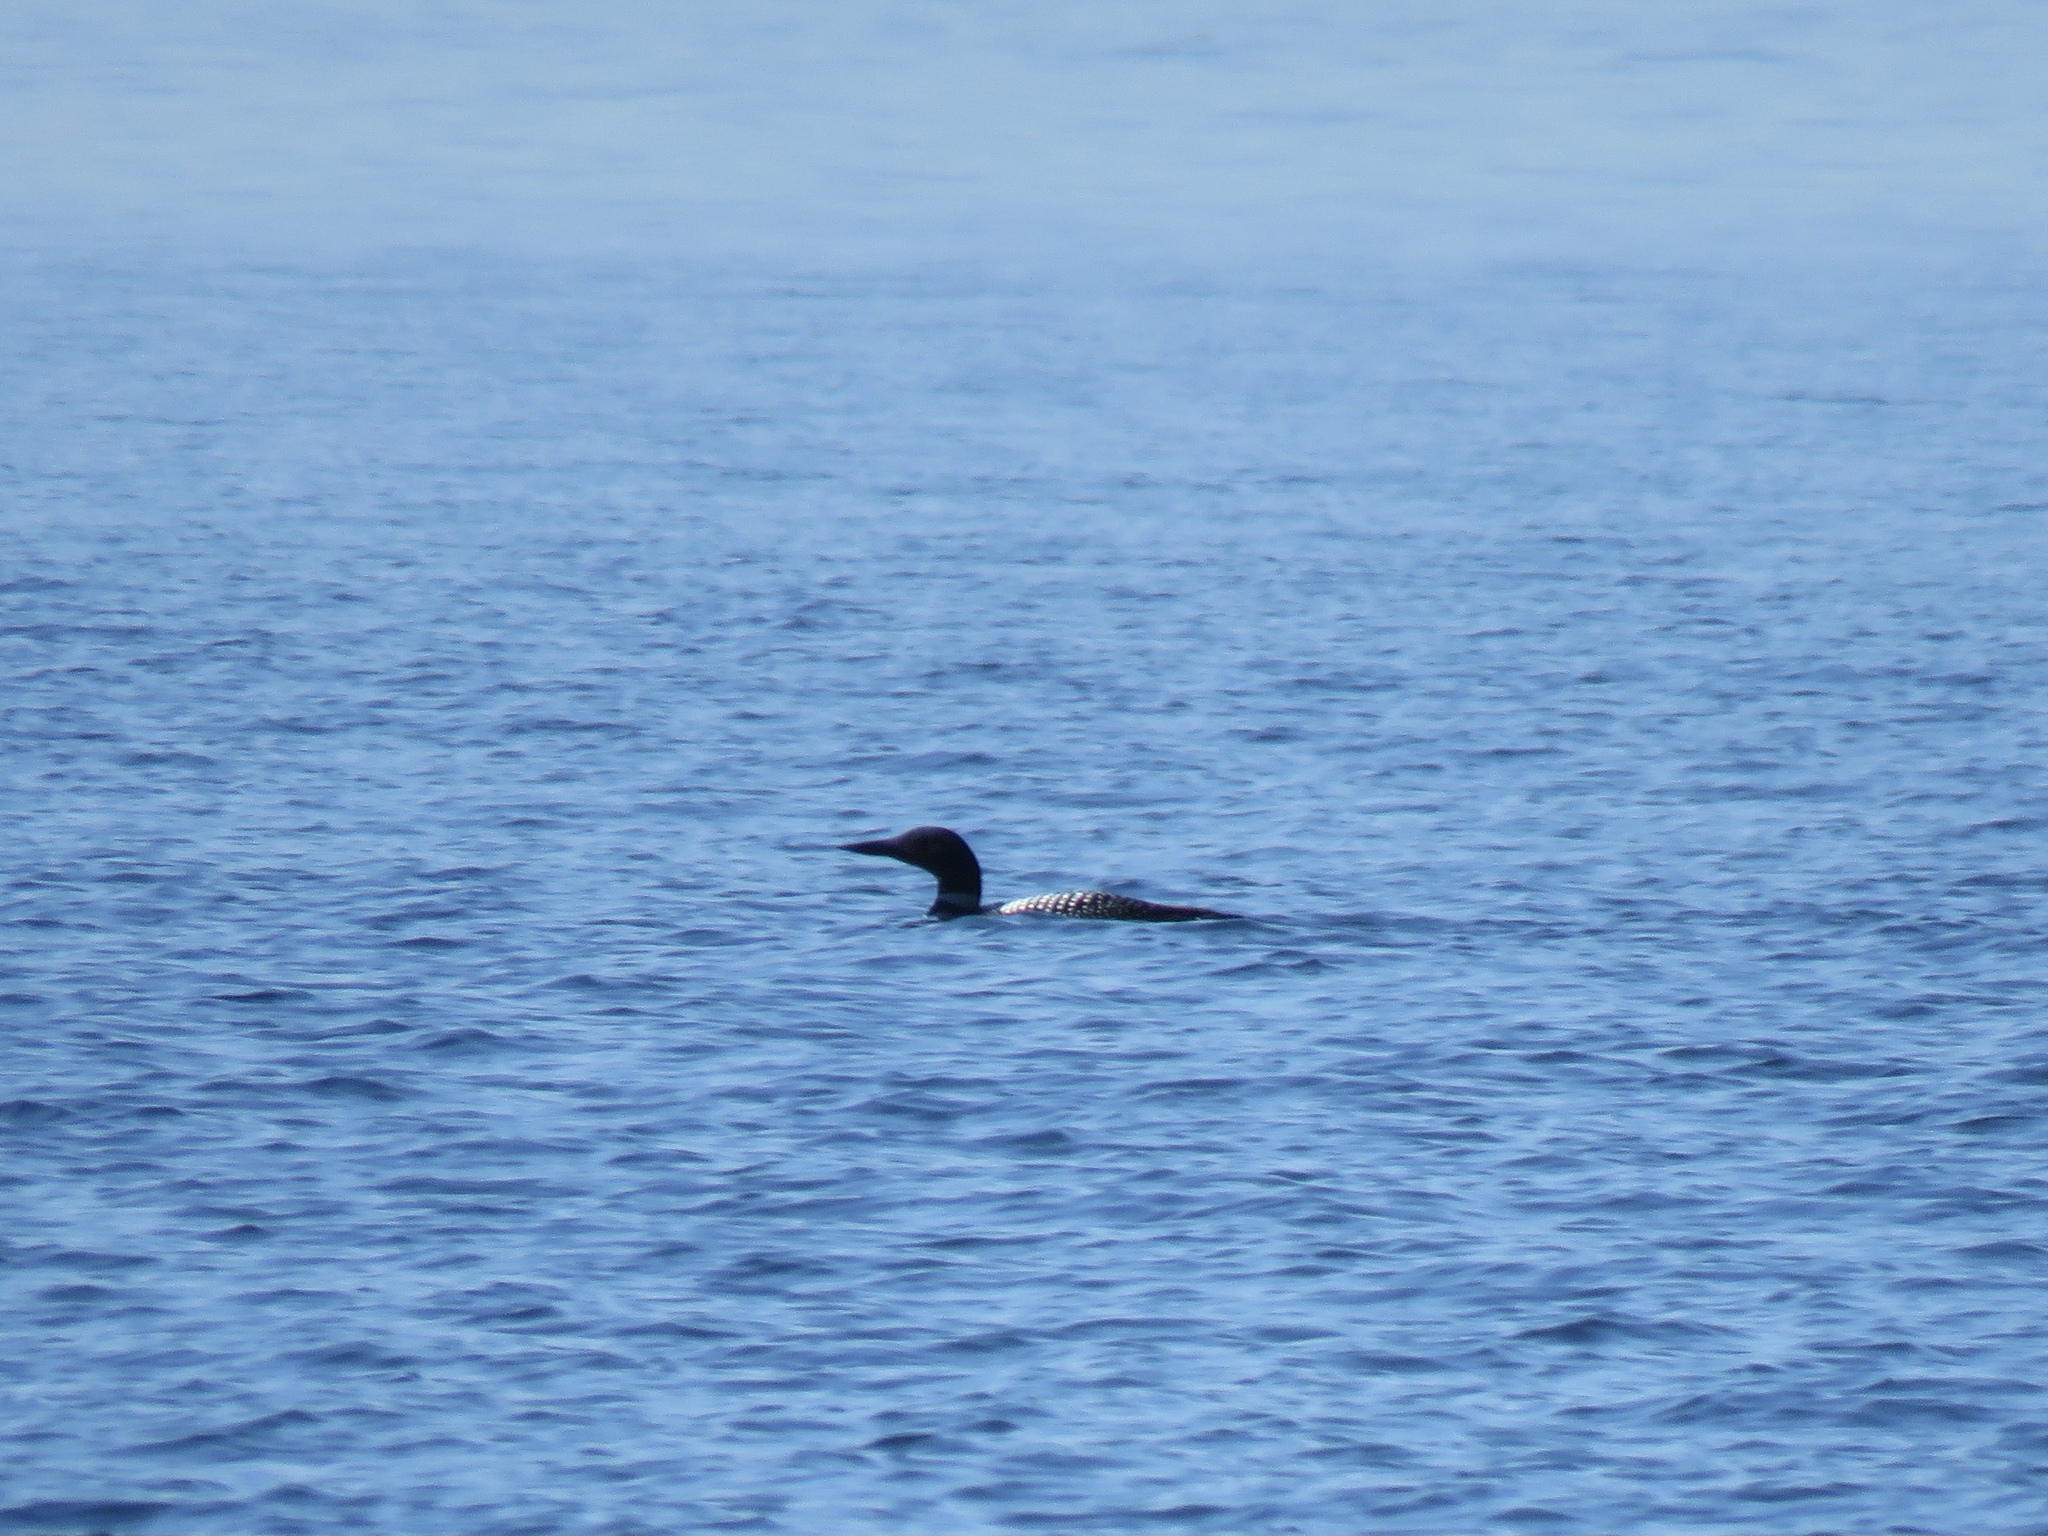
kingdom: Animalia
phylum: Chordata
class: Aves
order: Gaviiformes
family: Gaviidae
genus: Gavia
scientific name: Gavia immer
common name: Common loon
